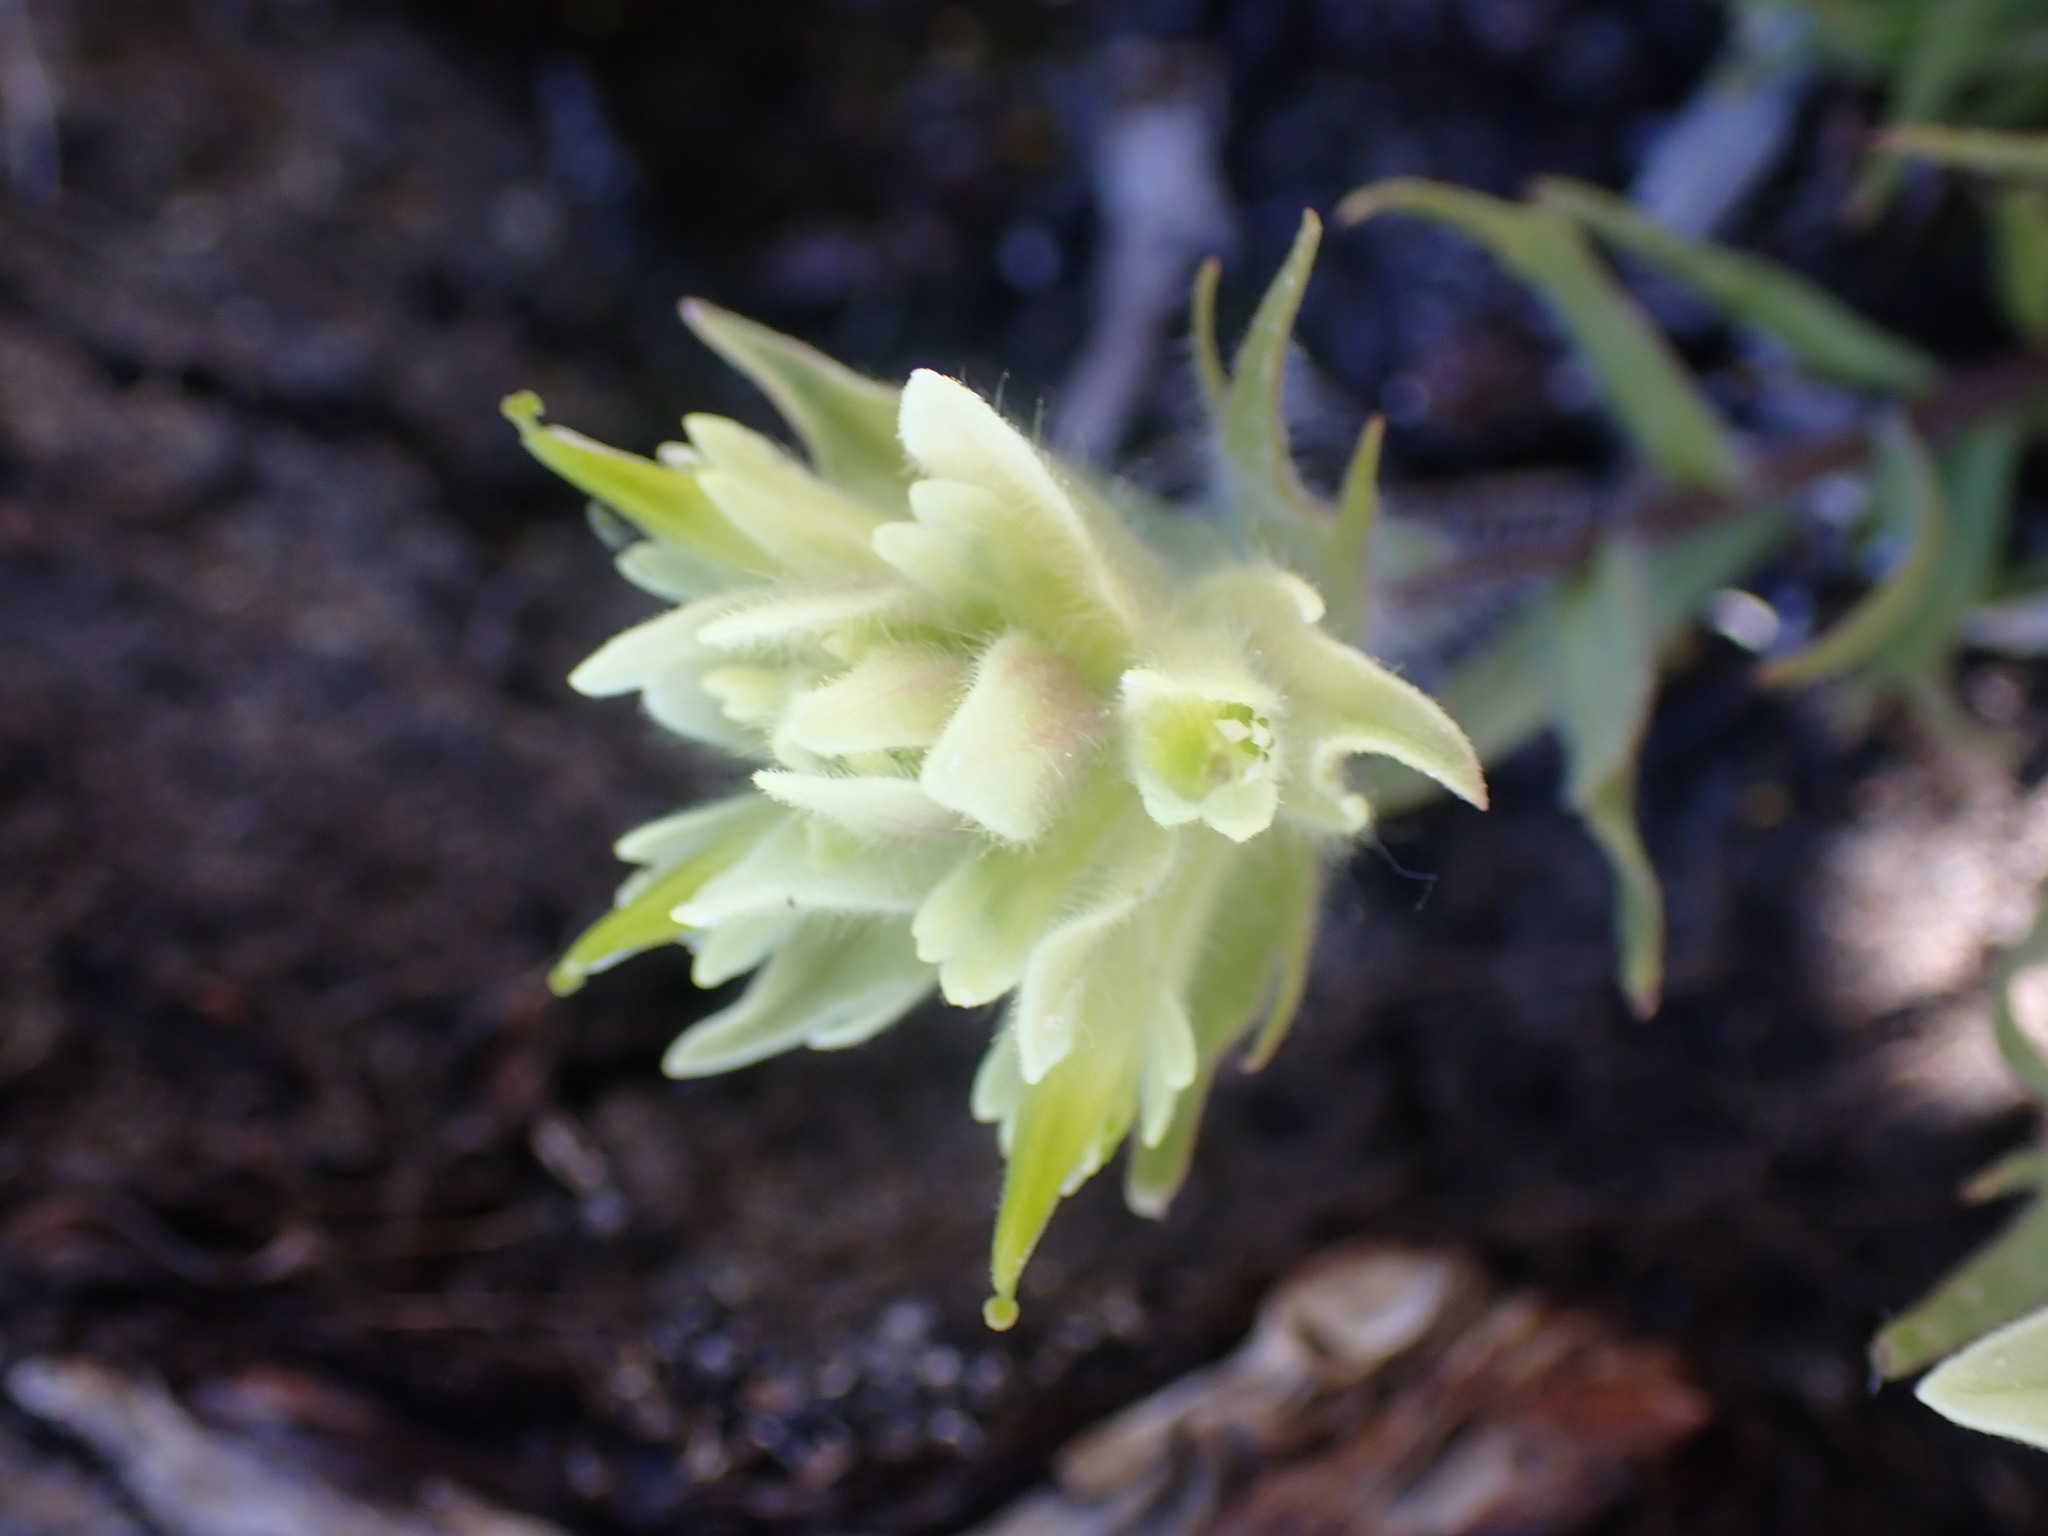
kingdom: Plantae
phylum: Tracheophyta
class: Magnoliopsida
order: Lamiales
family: Orobanchaceae
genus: Castilleja
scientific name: Castilleja occidentalis
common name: Western paintbrush
